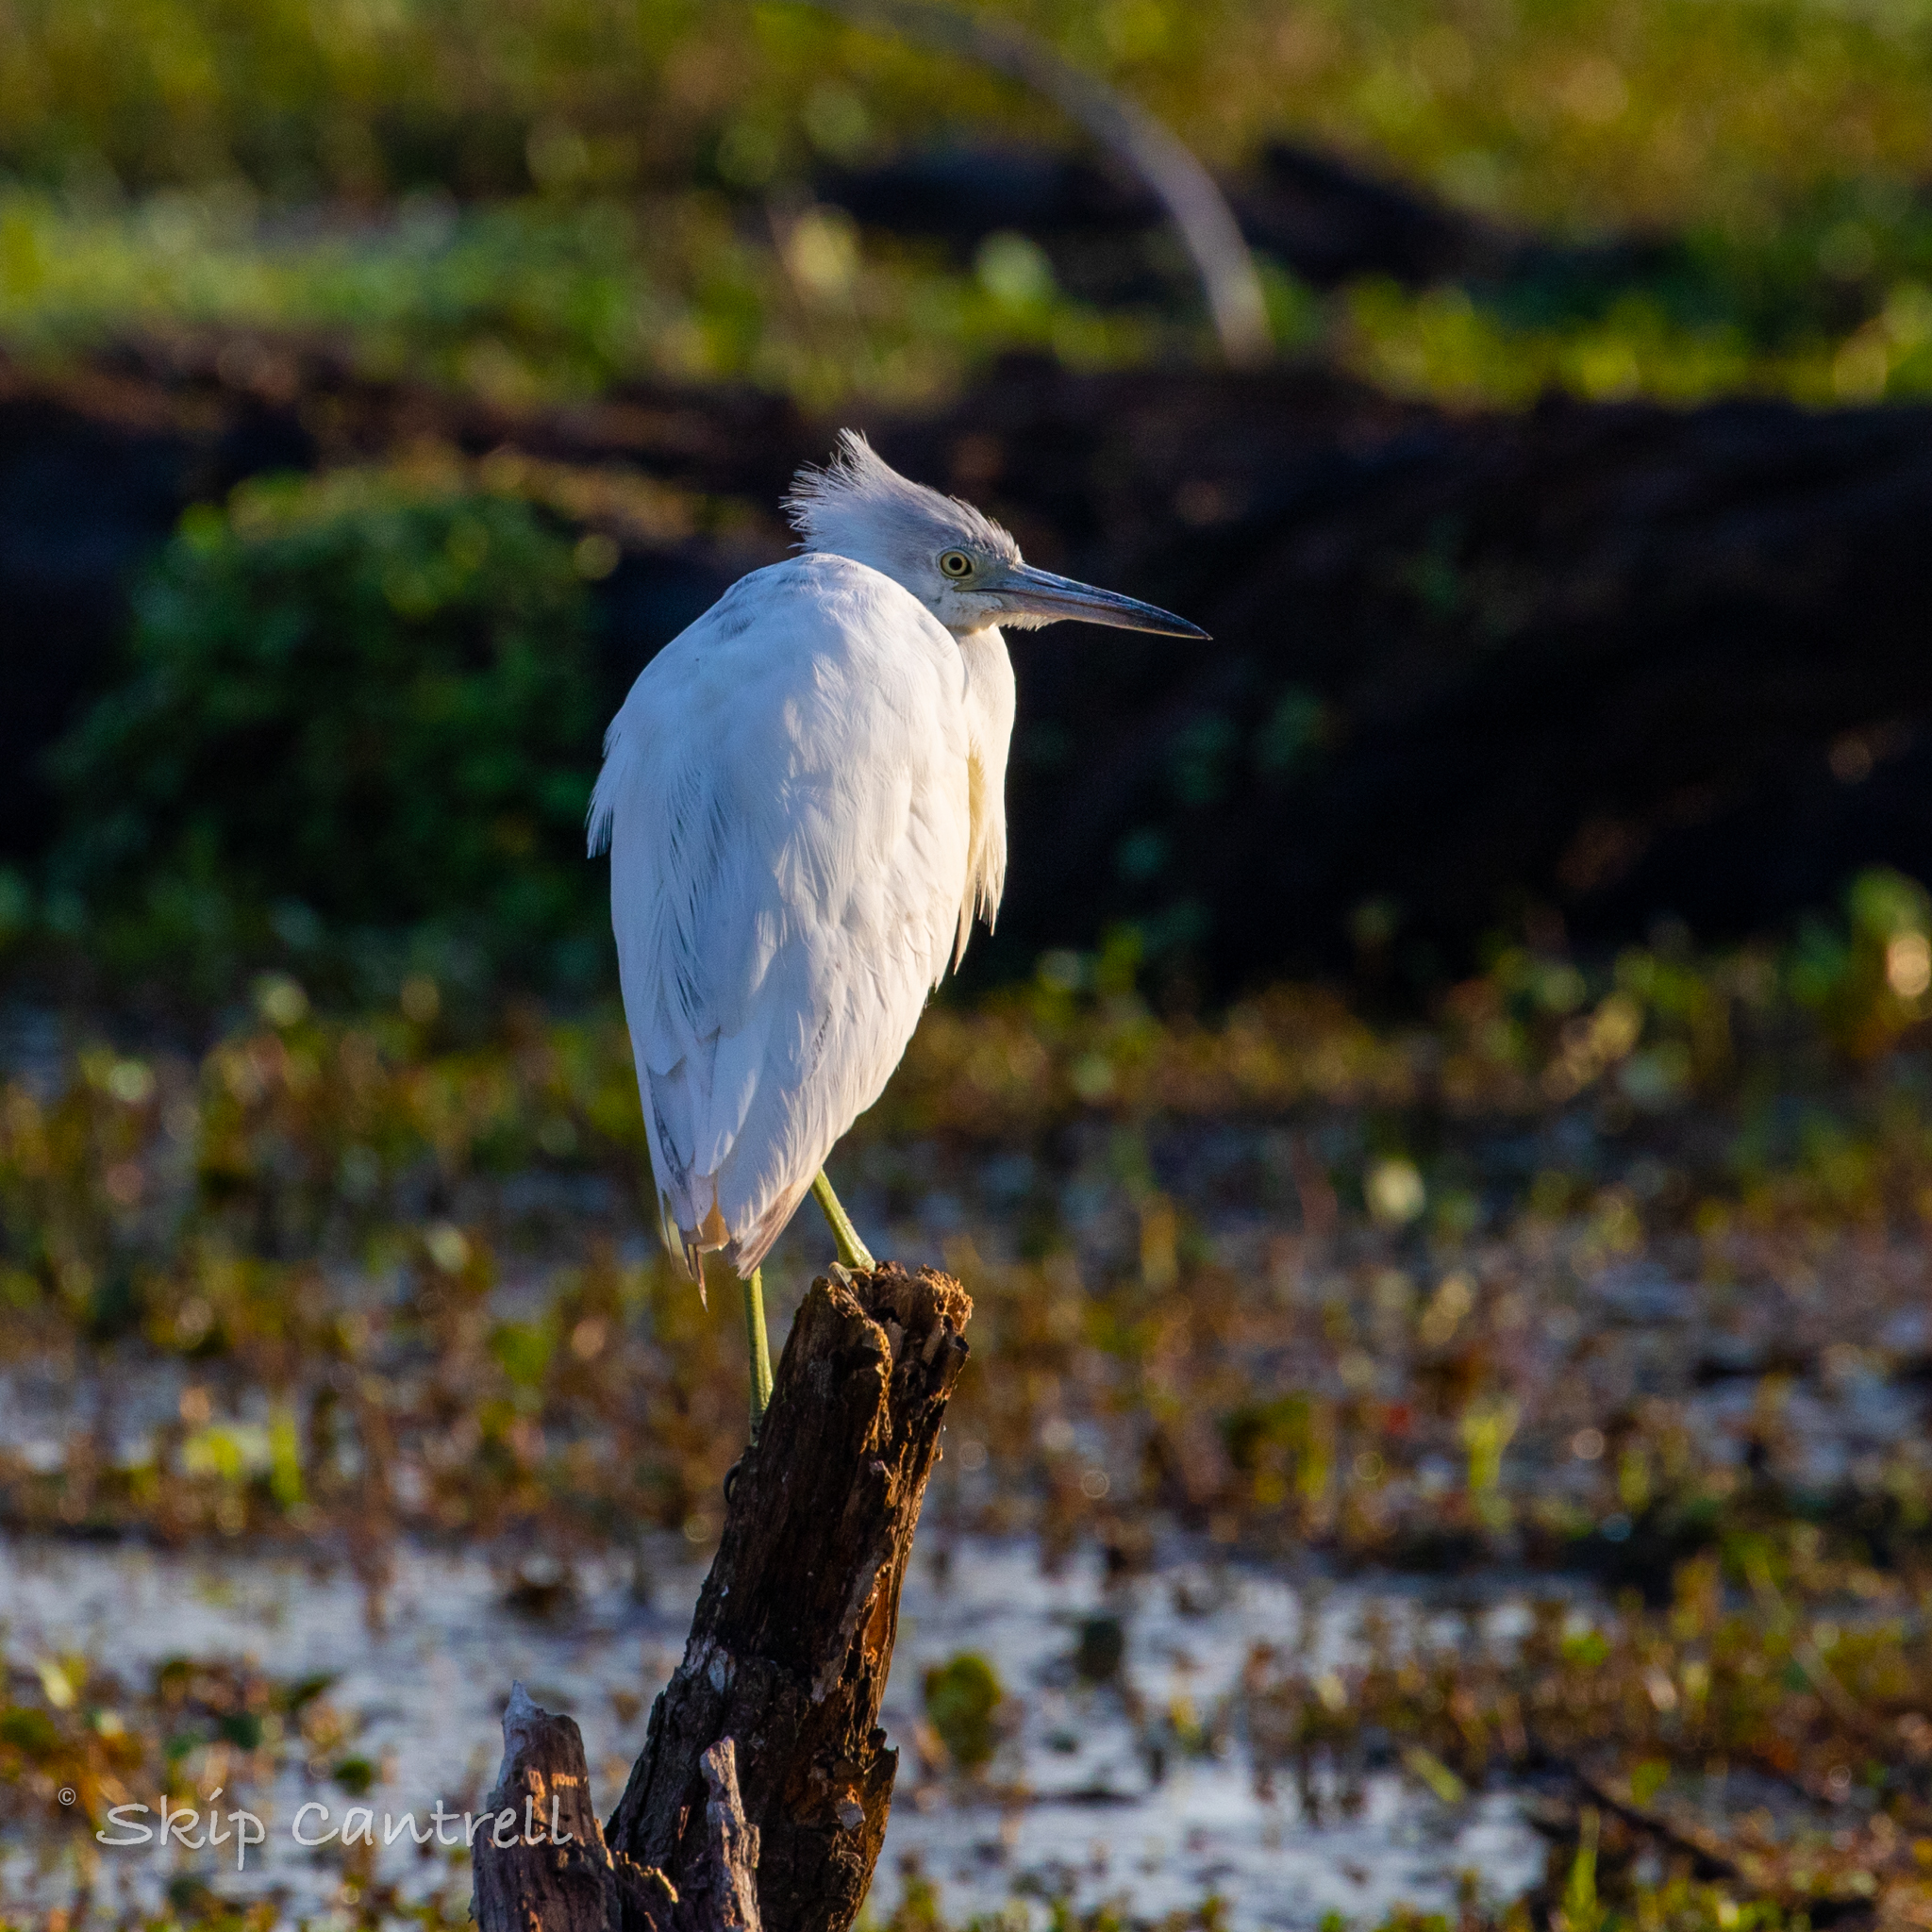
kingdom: Animalia
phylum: Chordata
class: Aves
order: Pelecaniformes
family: Ardeidae
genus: Egretta
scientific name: Egretta caerulea
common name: Little blue heron
